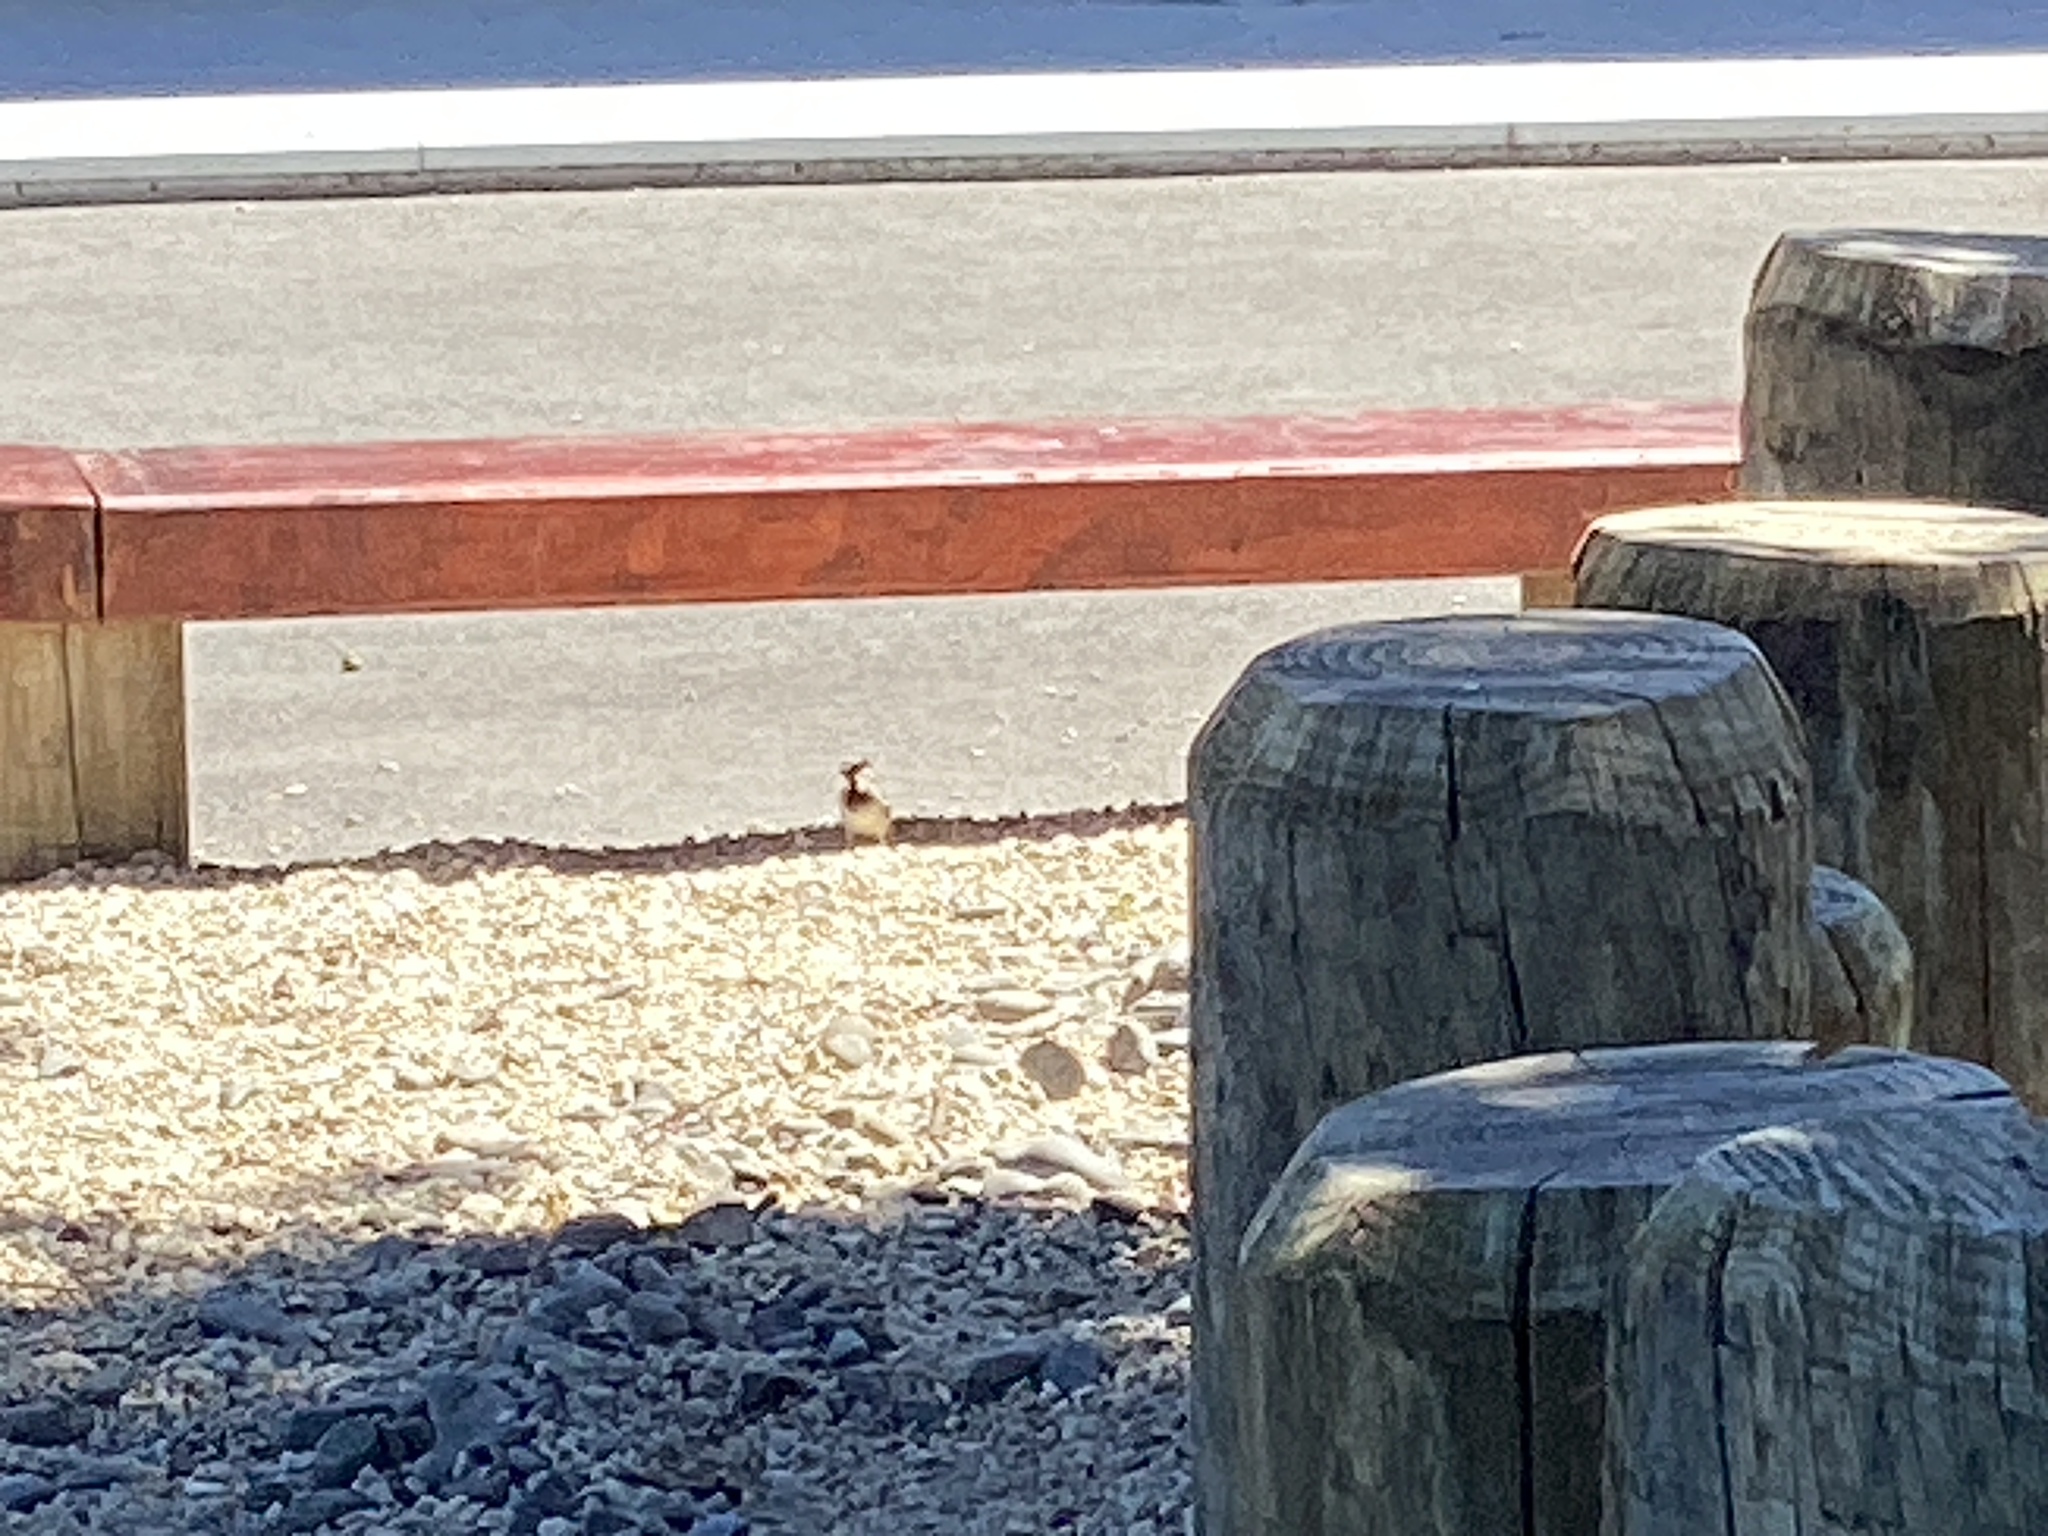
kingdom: Animalia
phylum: Chordata
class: Aves
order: Passeriformes
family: Passeridae
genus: Passer
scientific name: Passer domesticus
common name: House sparrow
